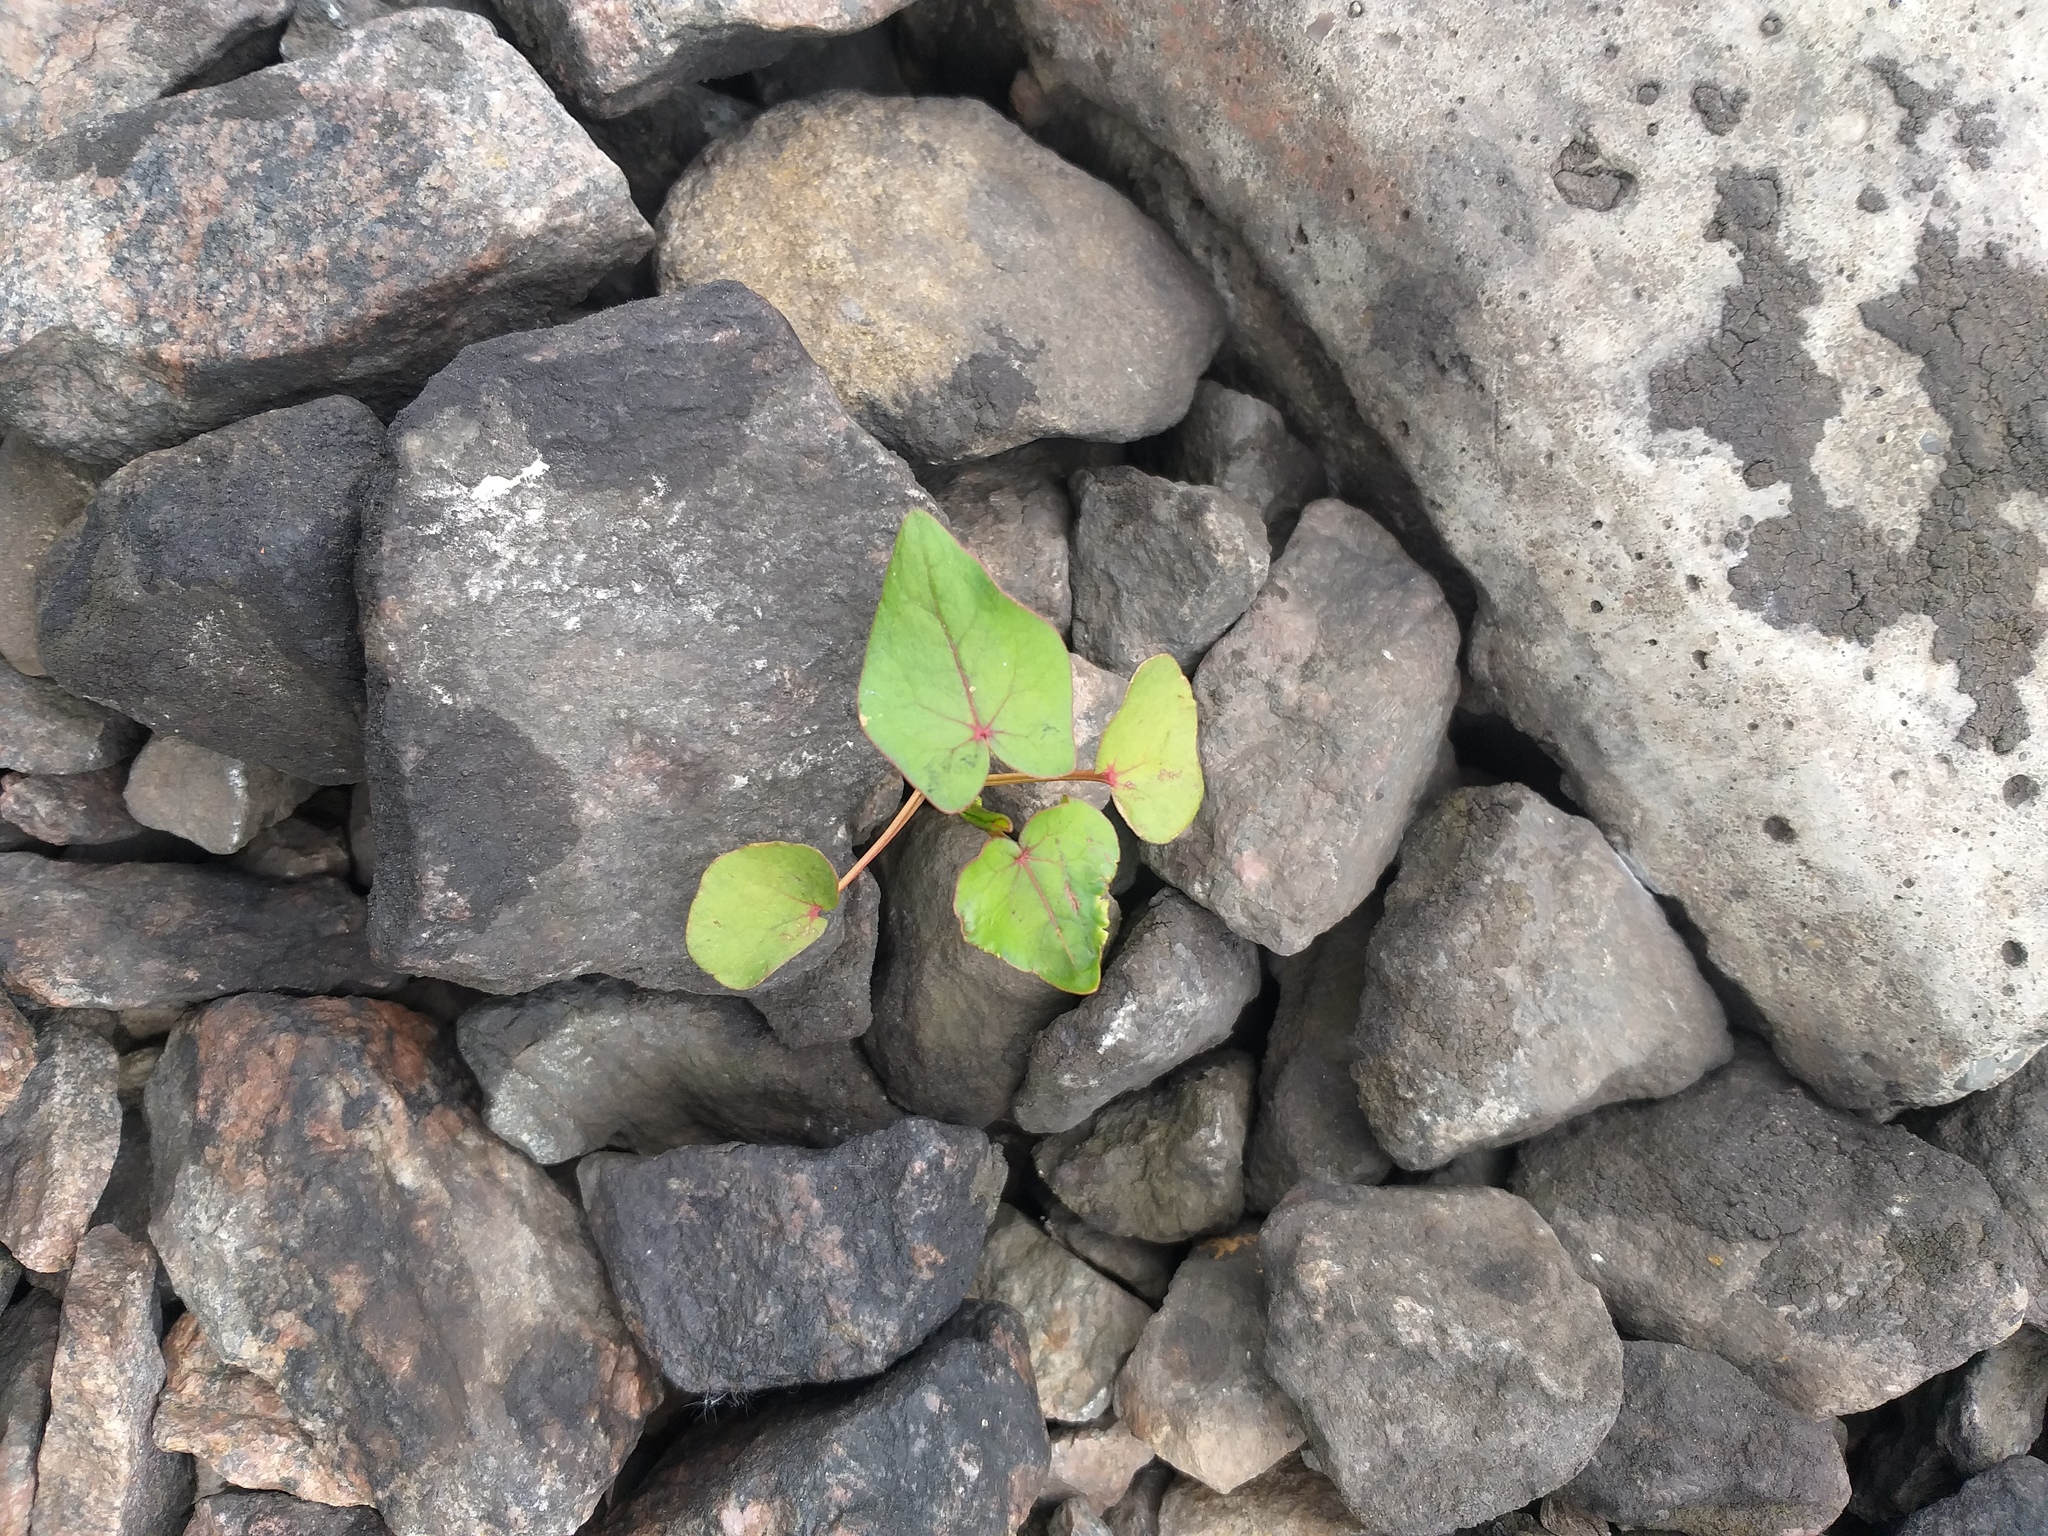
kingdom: Plantae
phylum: Tracheophyta
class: Magnoliopsida
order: Caryophyllales
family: Polygonaceae
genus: Fagopyrum
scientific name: Fagopyrum esculentum
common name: Buckwheat
